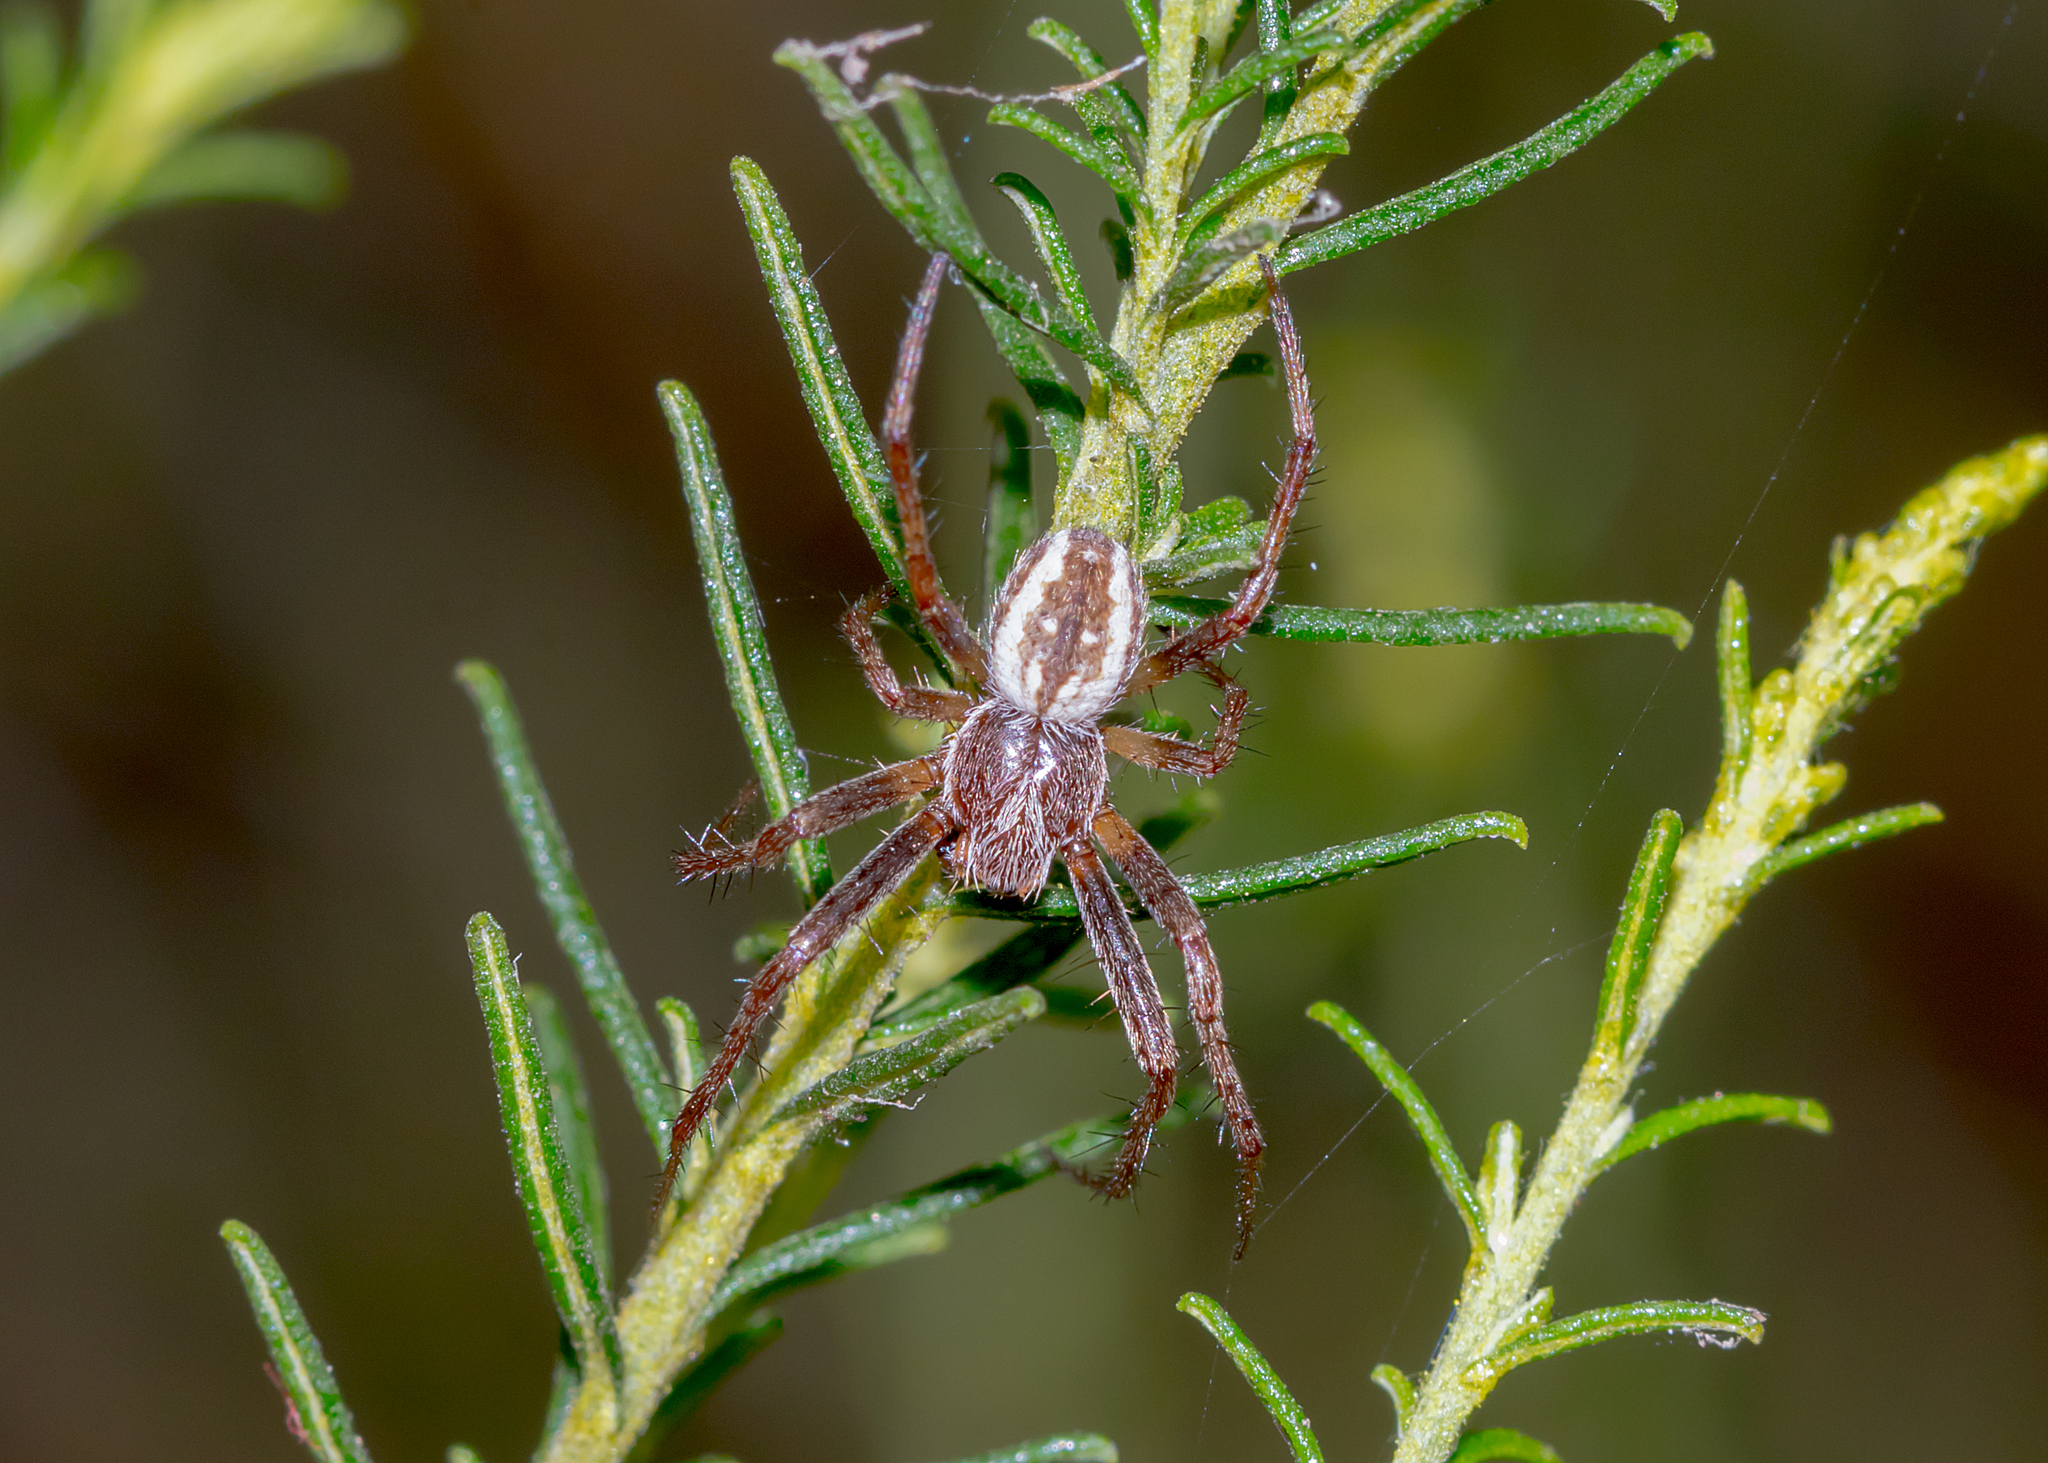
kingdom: Animalia
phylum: Arthropoda
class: Arachnida
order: Araneae
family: Araneidae
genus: Salsa
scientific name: Salsa fuliginata
